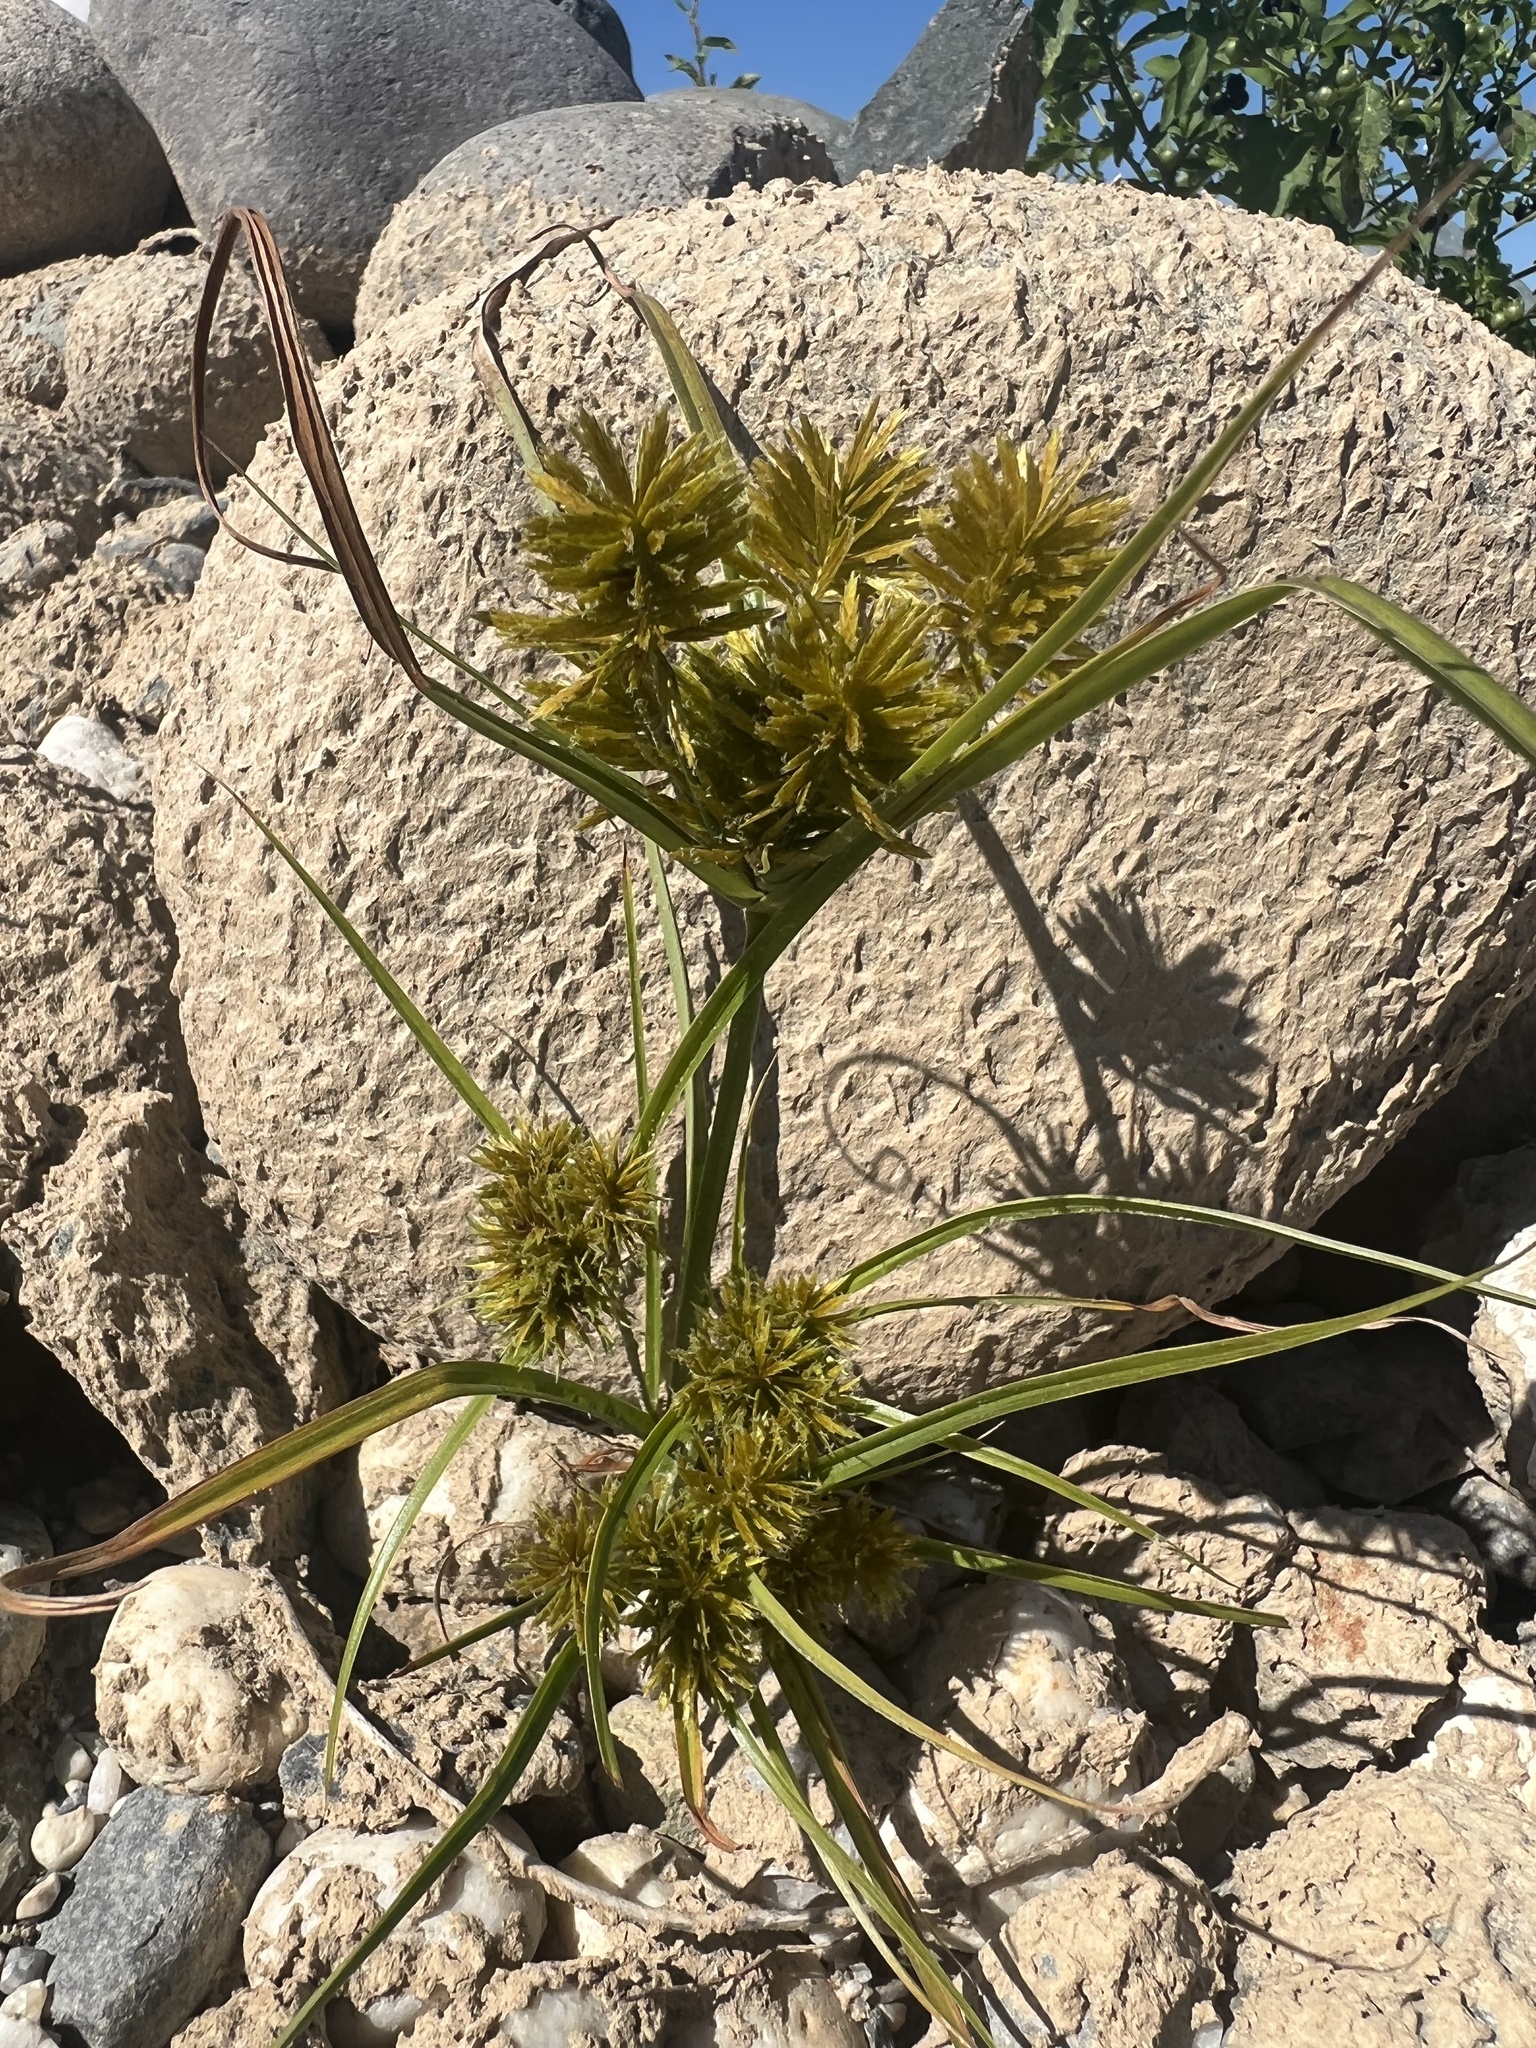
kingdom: Plantae
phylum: Tracheophyta
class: Liliopsida
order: Poales
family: Cyperaceae
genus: Cyperus
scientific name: Cyperus eragrostis
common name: Tall flatsedge
